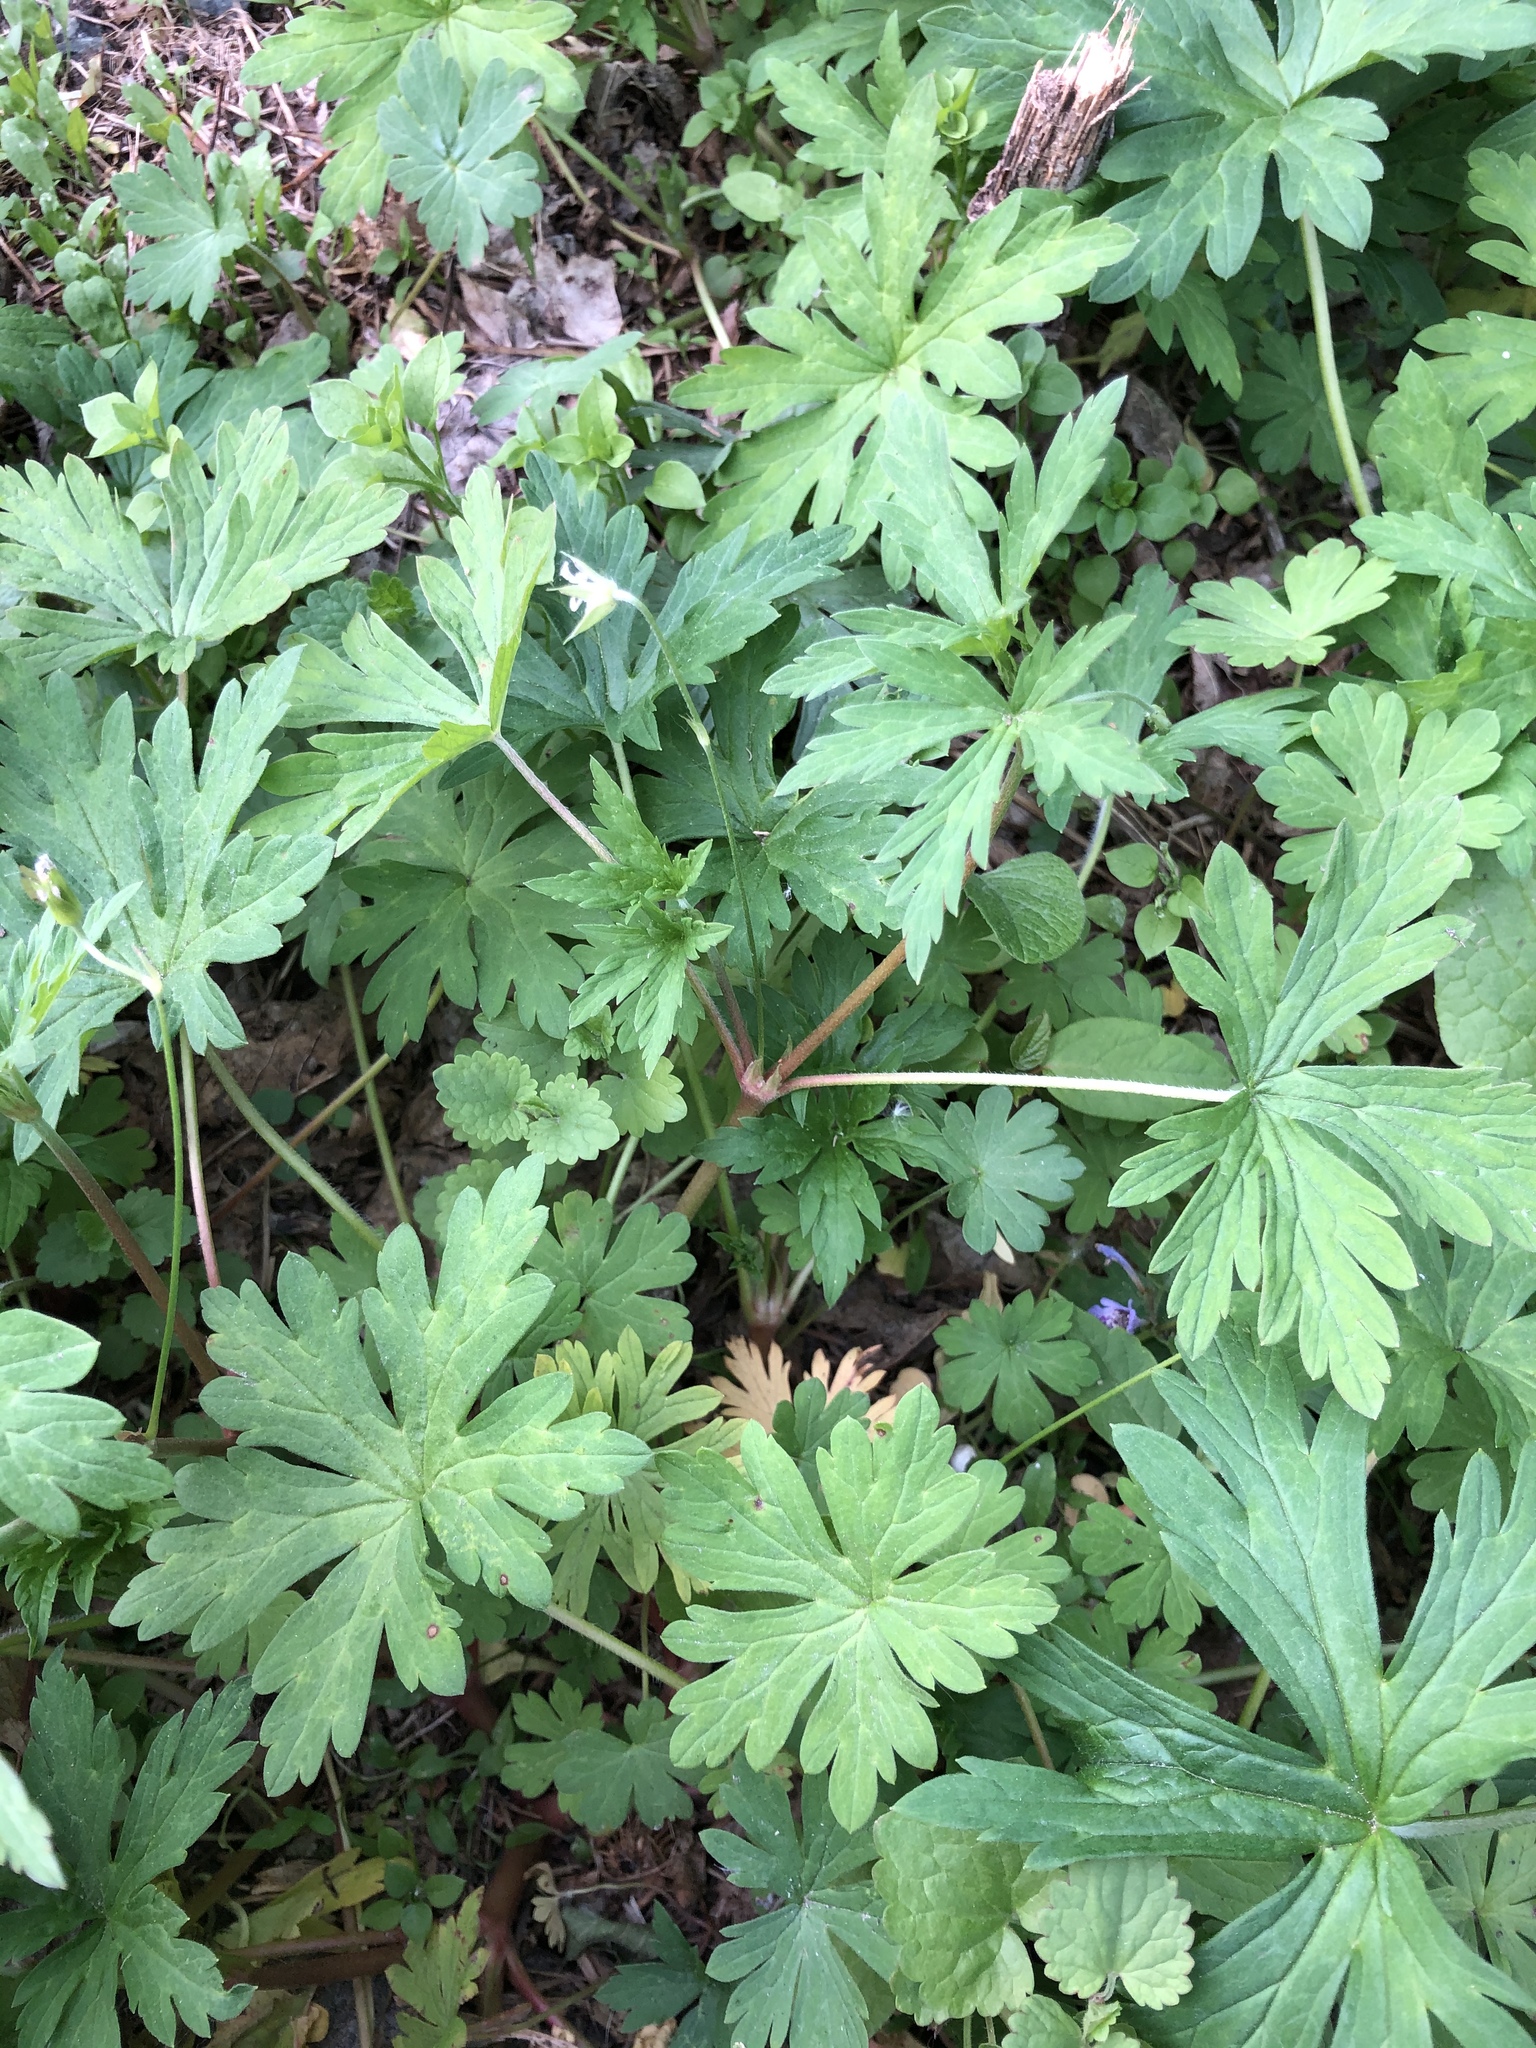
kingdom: Plantae
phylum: Tracheophyta
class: Magnoliopsida
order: Geraniales
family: Geraniaceae
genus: Geranium
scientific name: Geranium sibiricum
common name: Siberian crane's-bill
